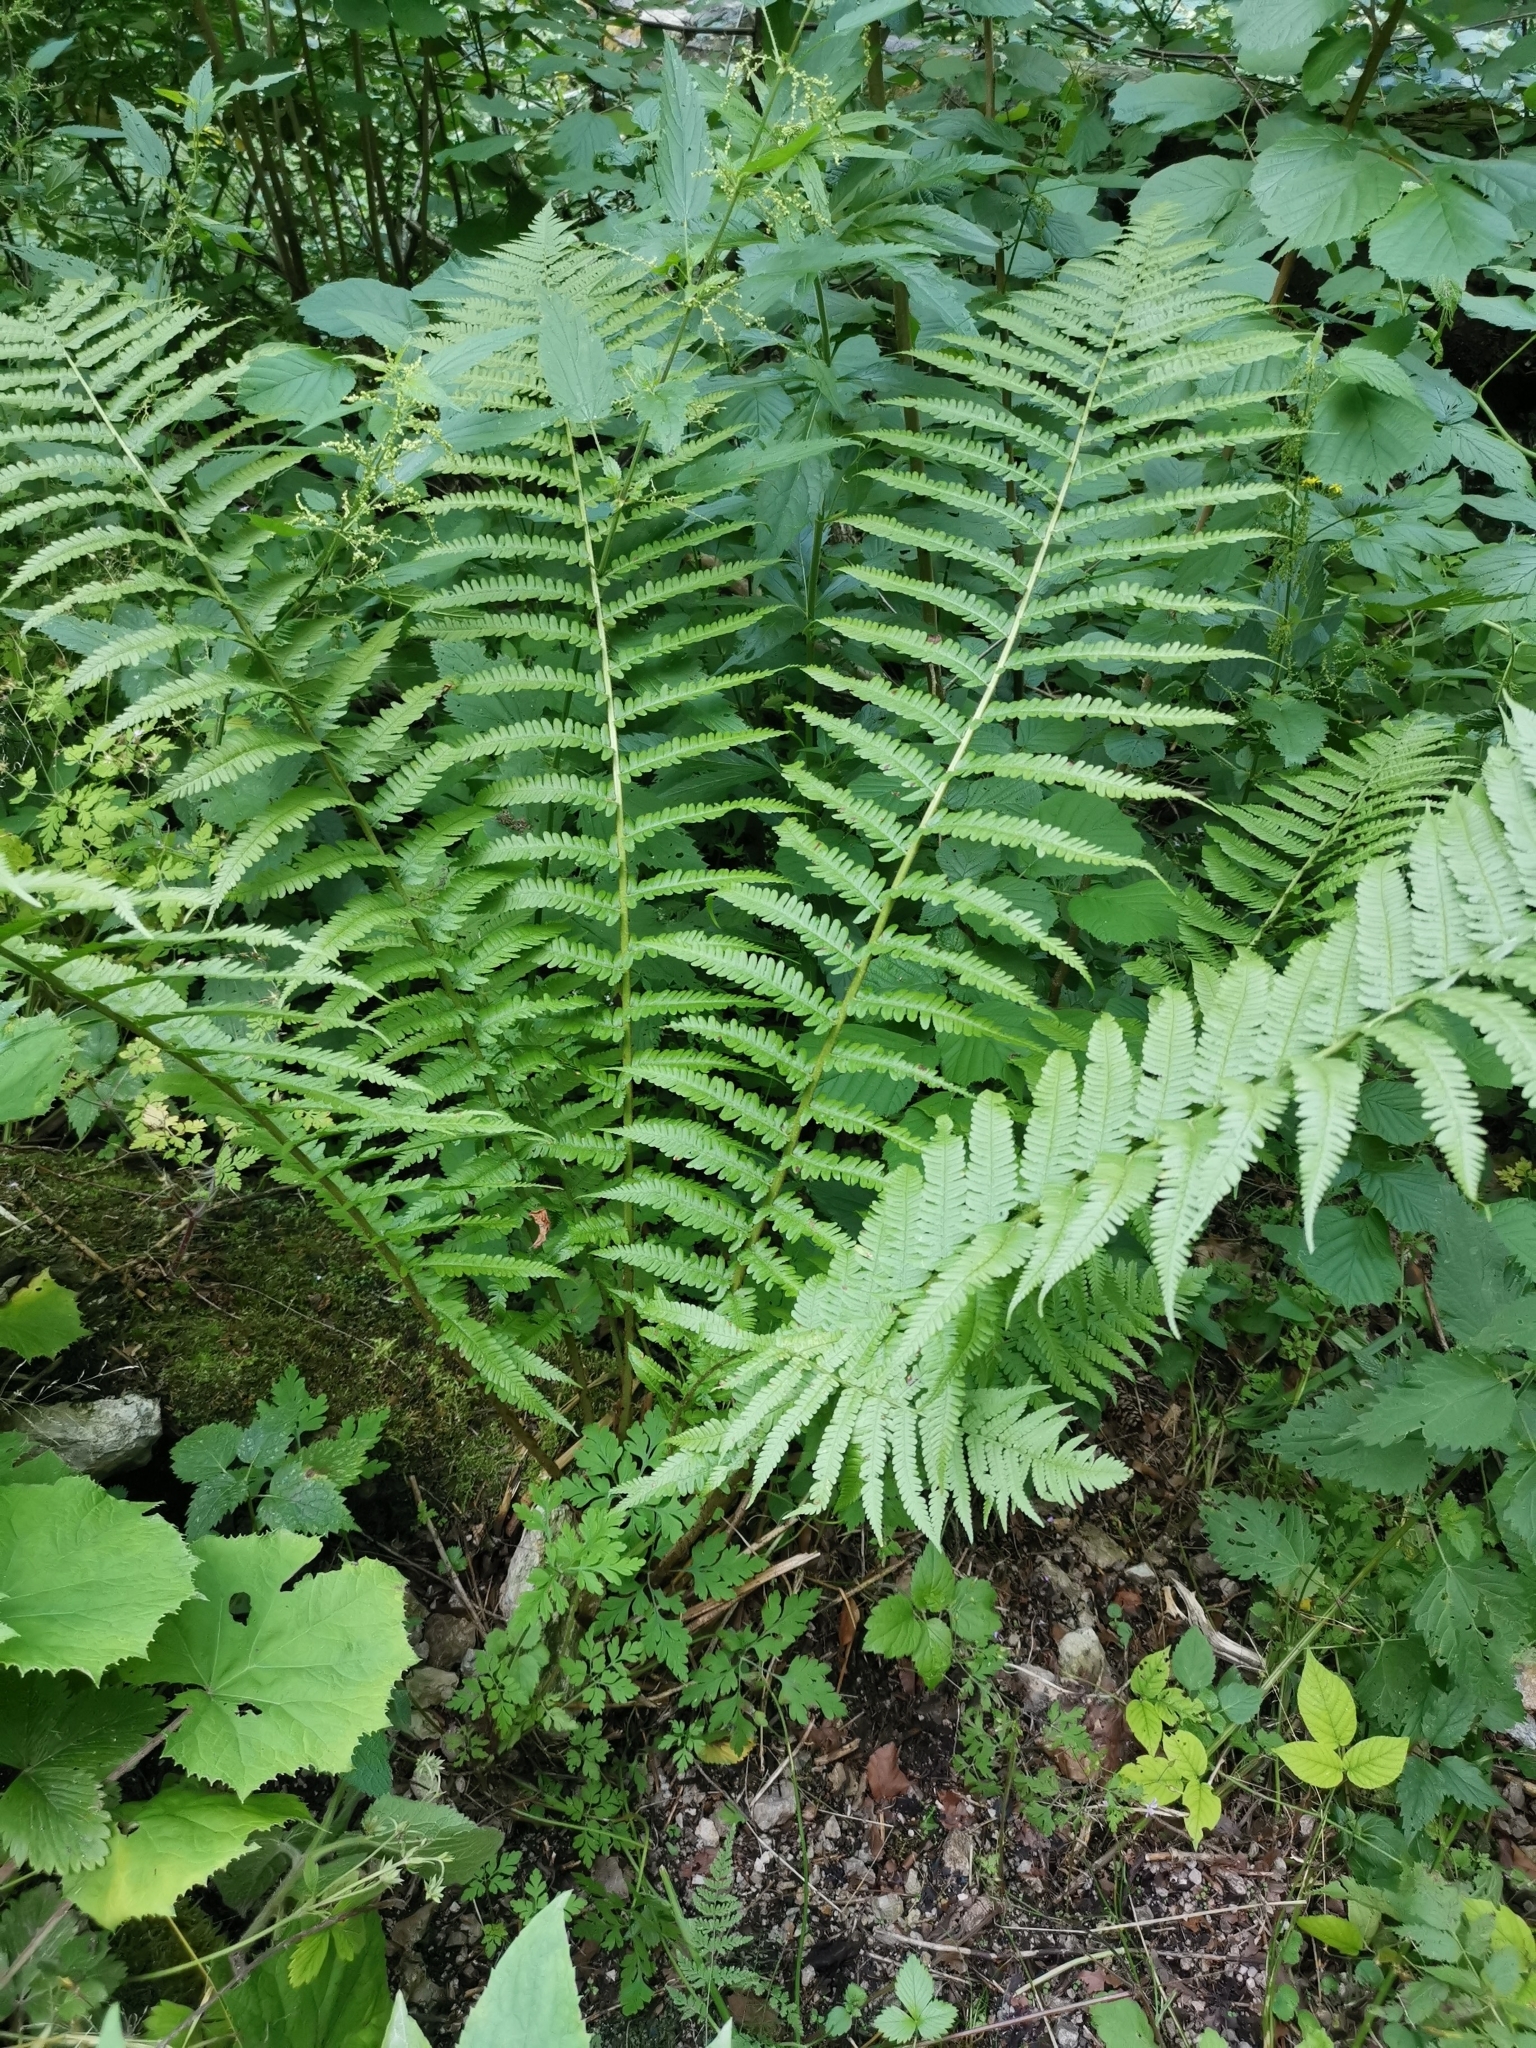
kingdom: Plantae
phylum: Tracheophyta
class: Polypodiopsida
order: Polypodiales
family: Dryopteridaceae
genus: Dryopteris
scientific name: Dryopteris filix-mas
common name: Male fern
